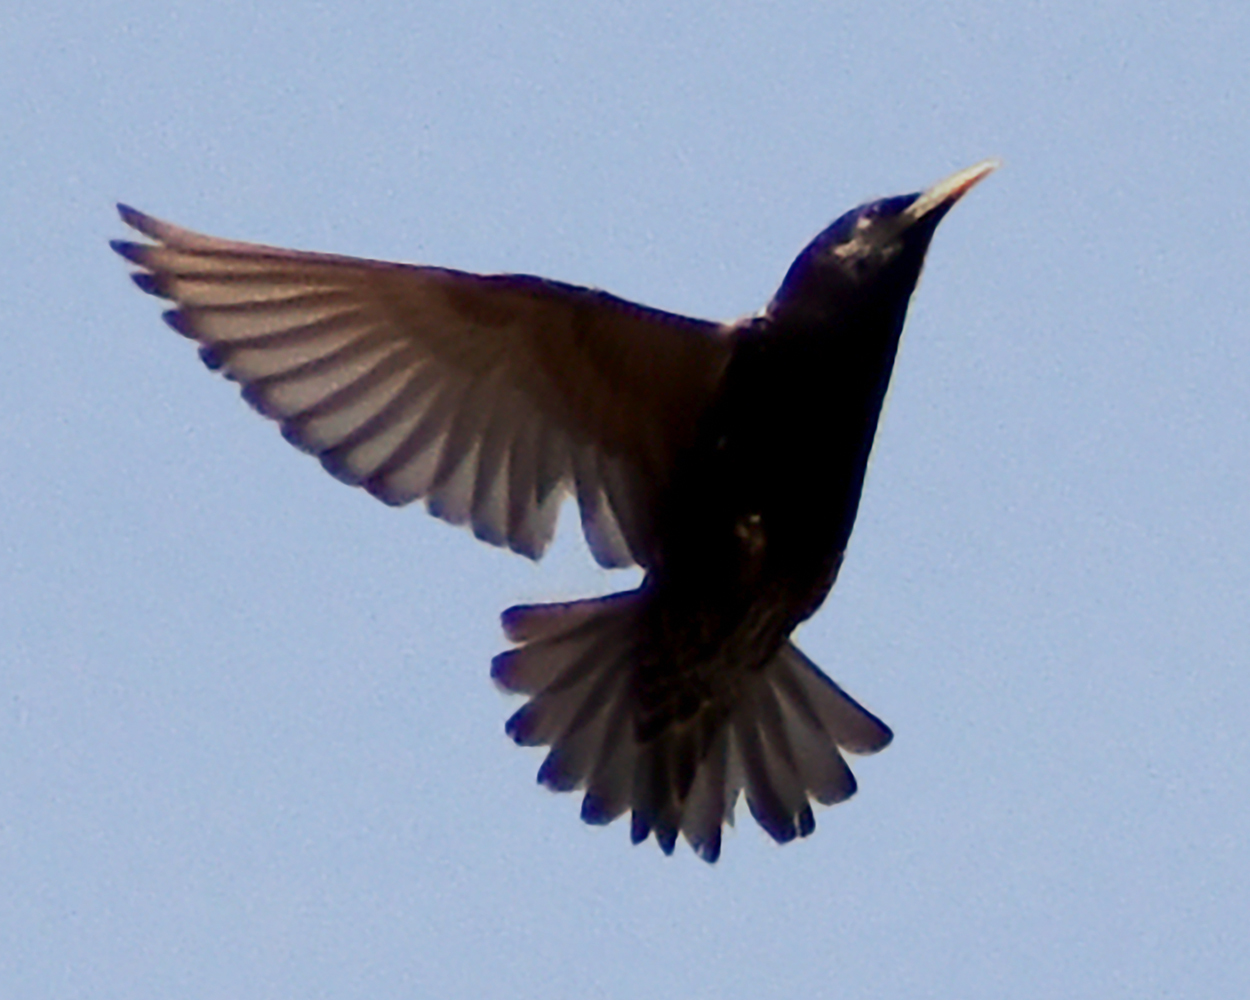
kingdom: Animalia
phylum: Chordata
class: Aves
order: Passeriformes
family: Sturnidae
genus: Sturnus
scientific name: Sturnus vulgaris
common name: Common starling
